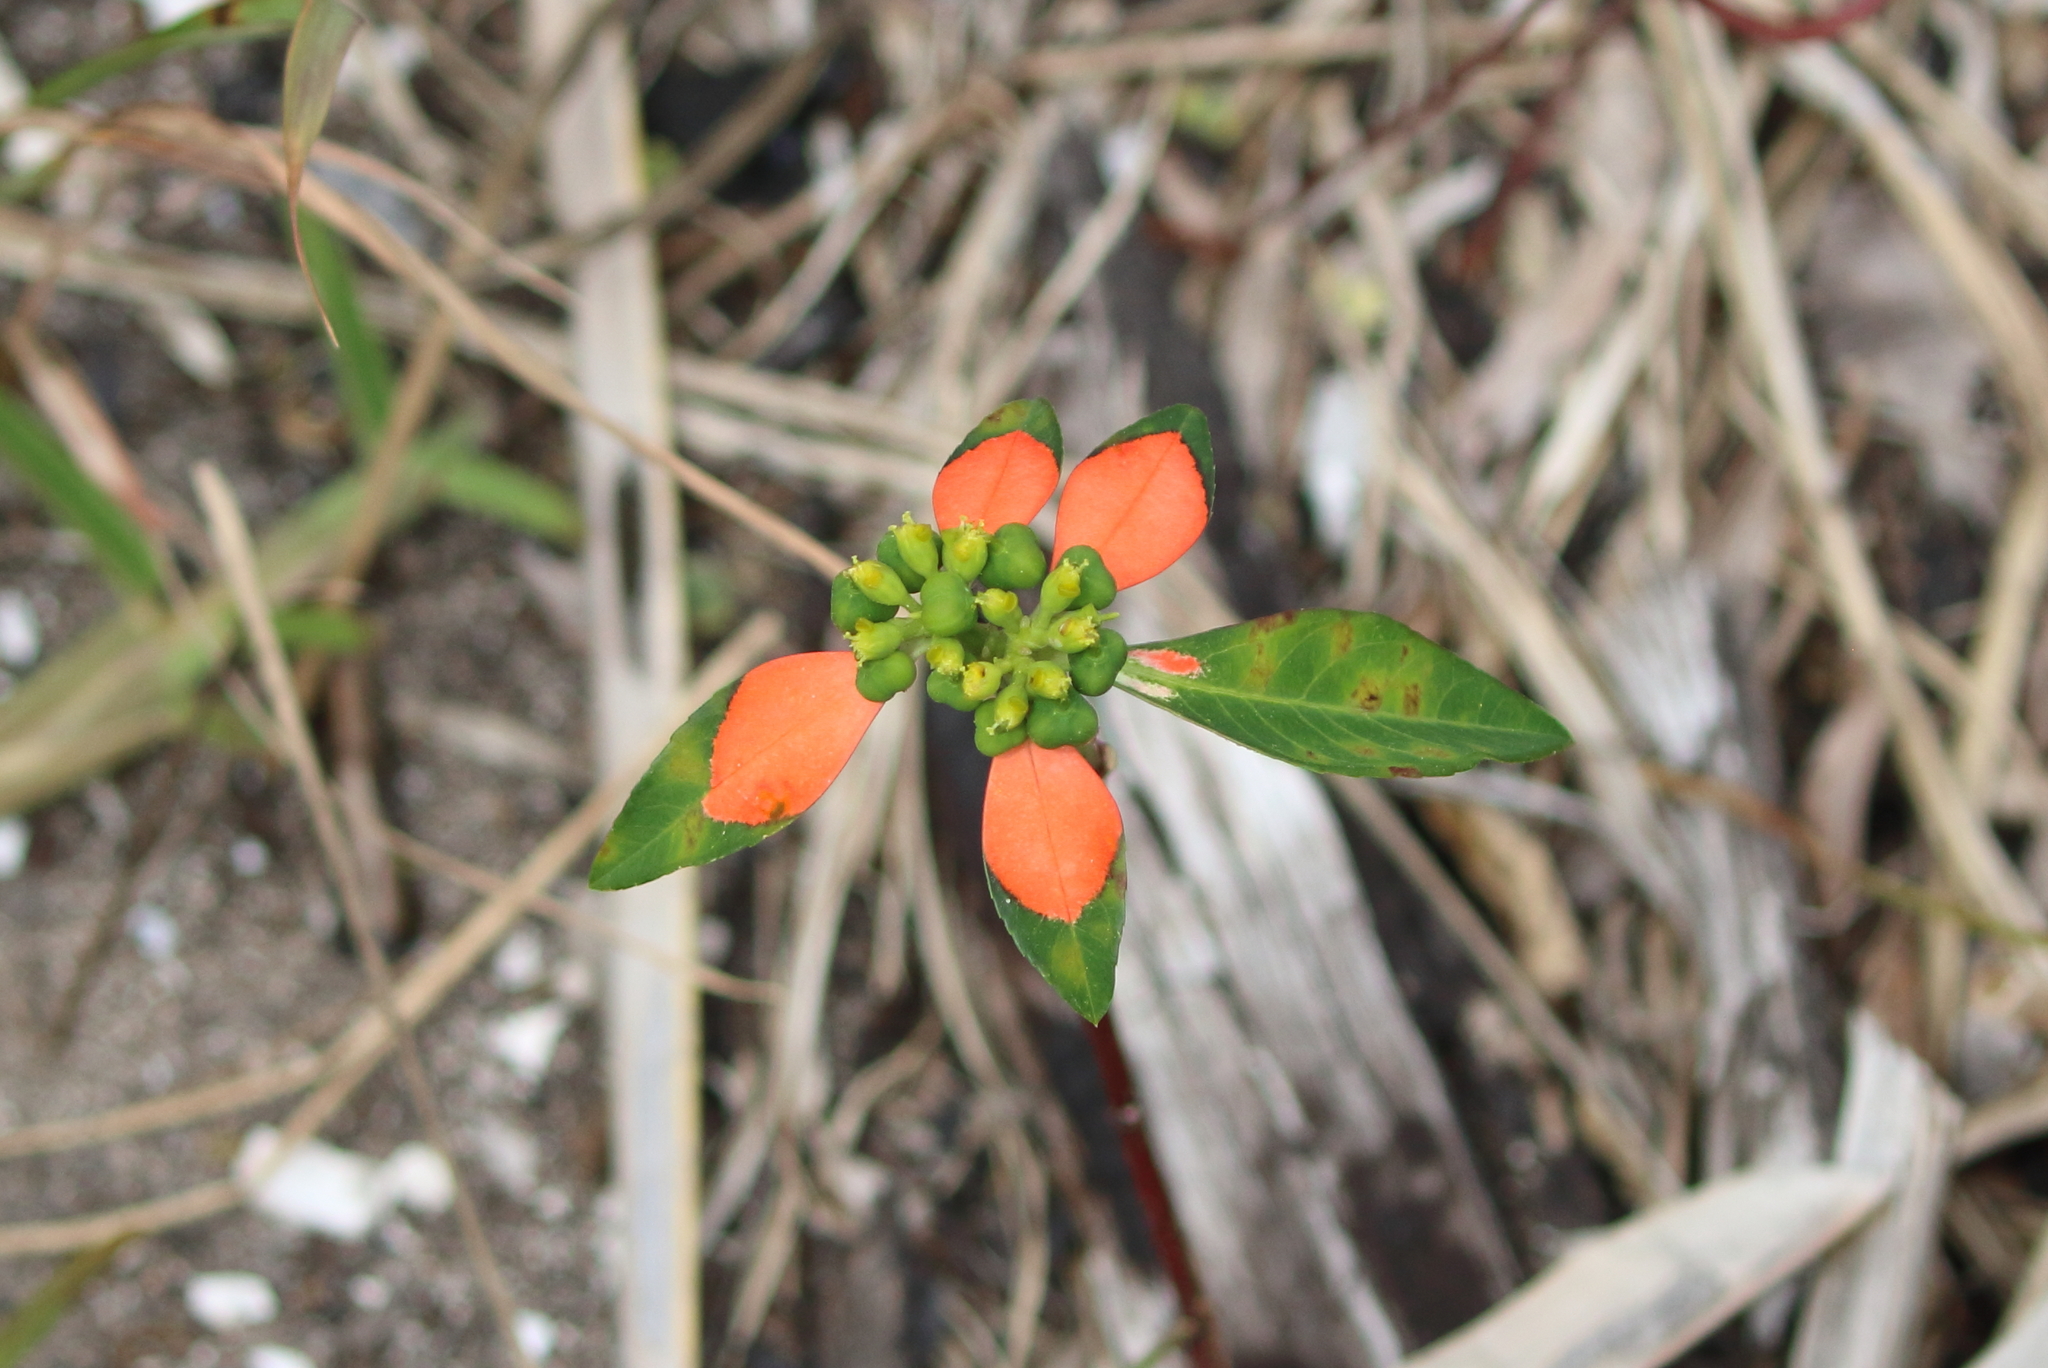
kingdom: Plantae
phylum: Tracheophyta
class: Magnoliopsida
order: Malpighiales
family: Euphorbiaceae
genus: Euphorbia
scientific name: Euphorbia heterophylla
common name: Mexican fireplant
